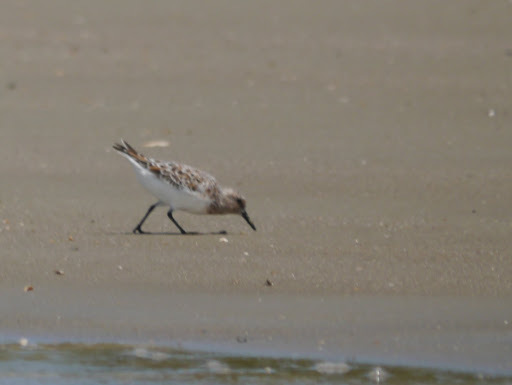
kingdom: Animalia
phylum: Chordata
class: Aves
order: Charadriiformes
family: Scolopacidae
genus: Calidris
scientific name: Calidris alba
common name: Sanderling
